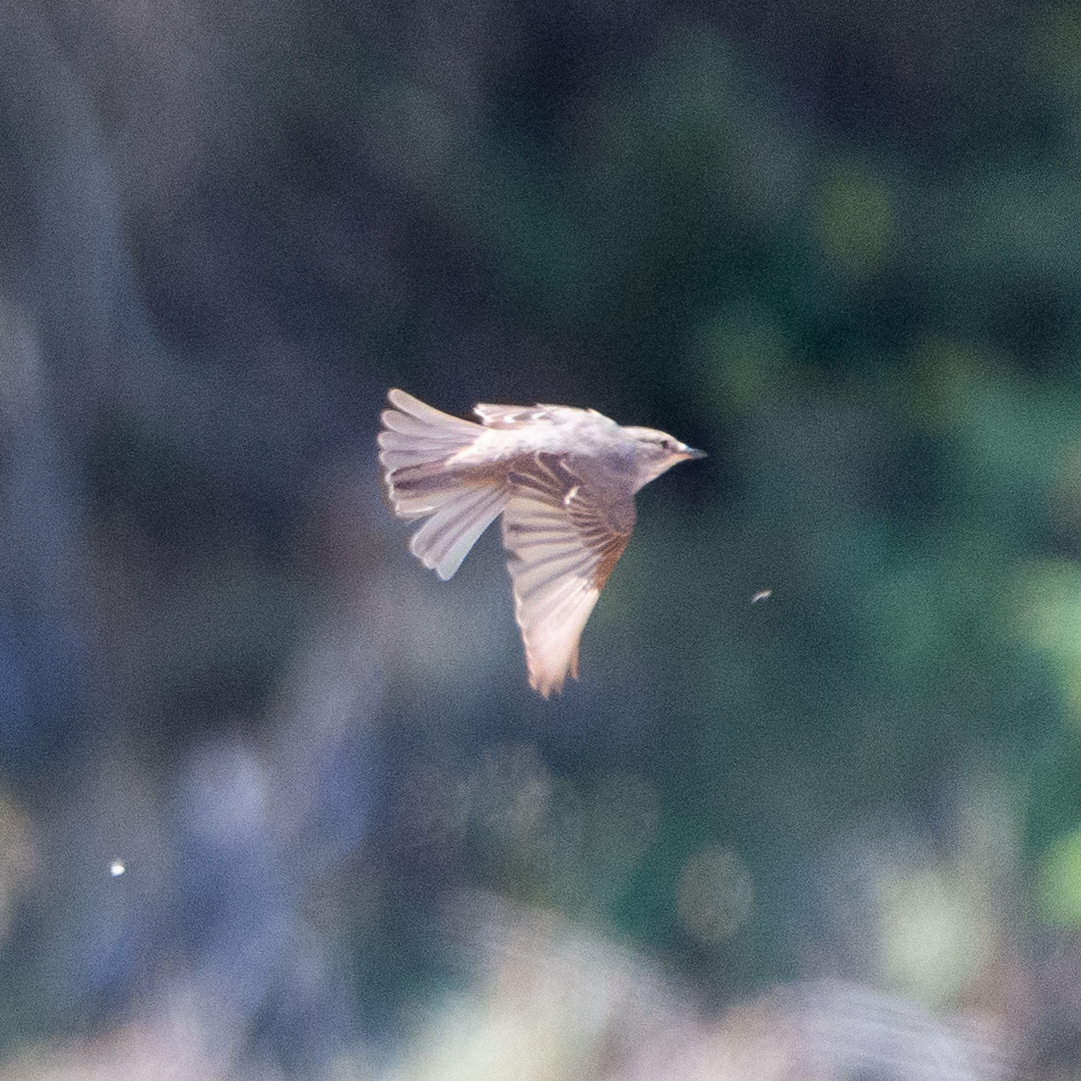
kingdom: Animalia
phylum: Chordata
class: Aves
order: Passeriformes
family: Muscicapidae
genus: Muscicapa
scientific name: Muscicapa striata
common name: Spotted flycatcher
